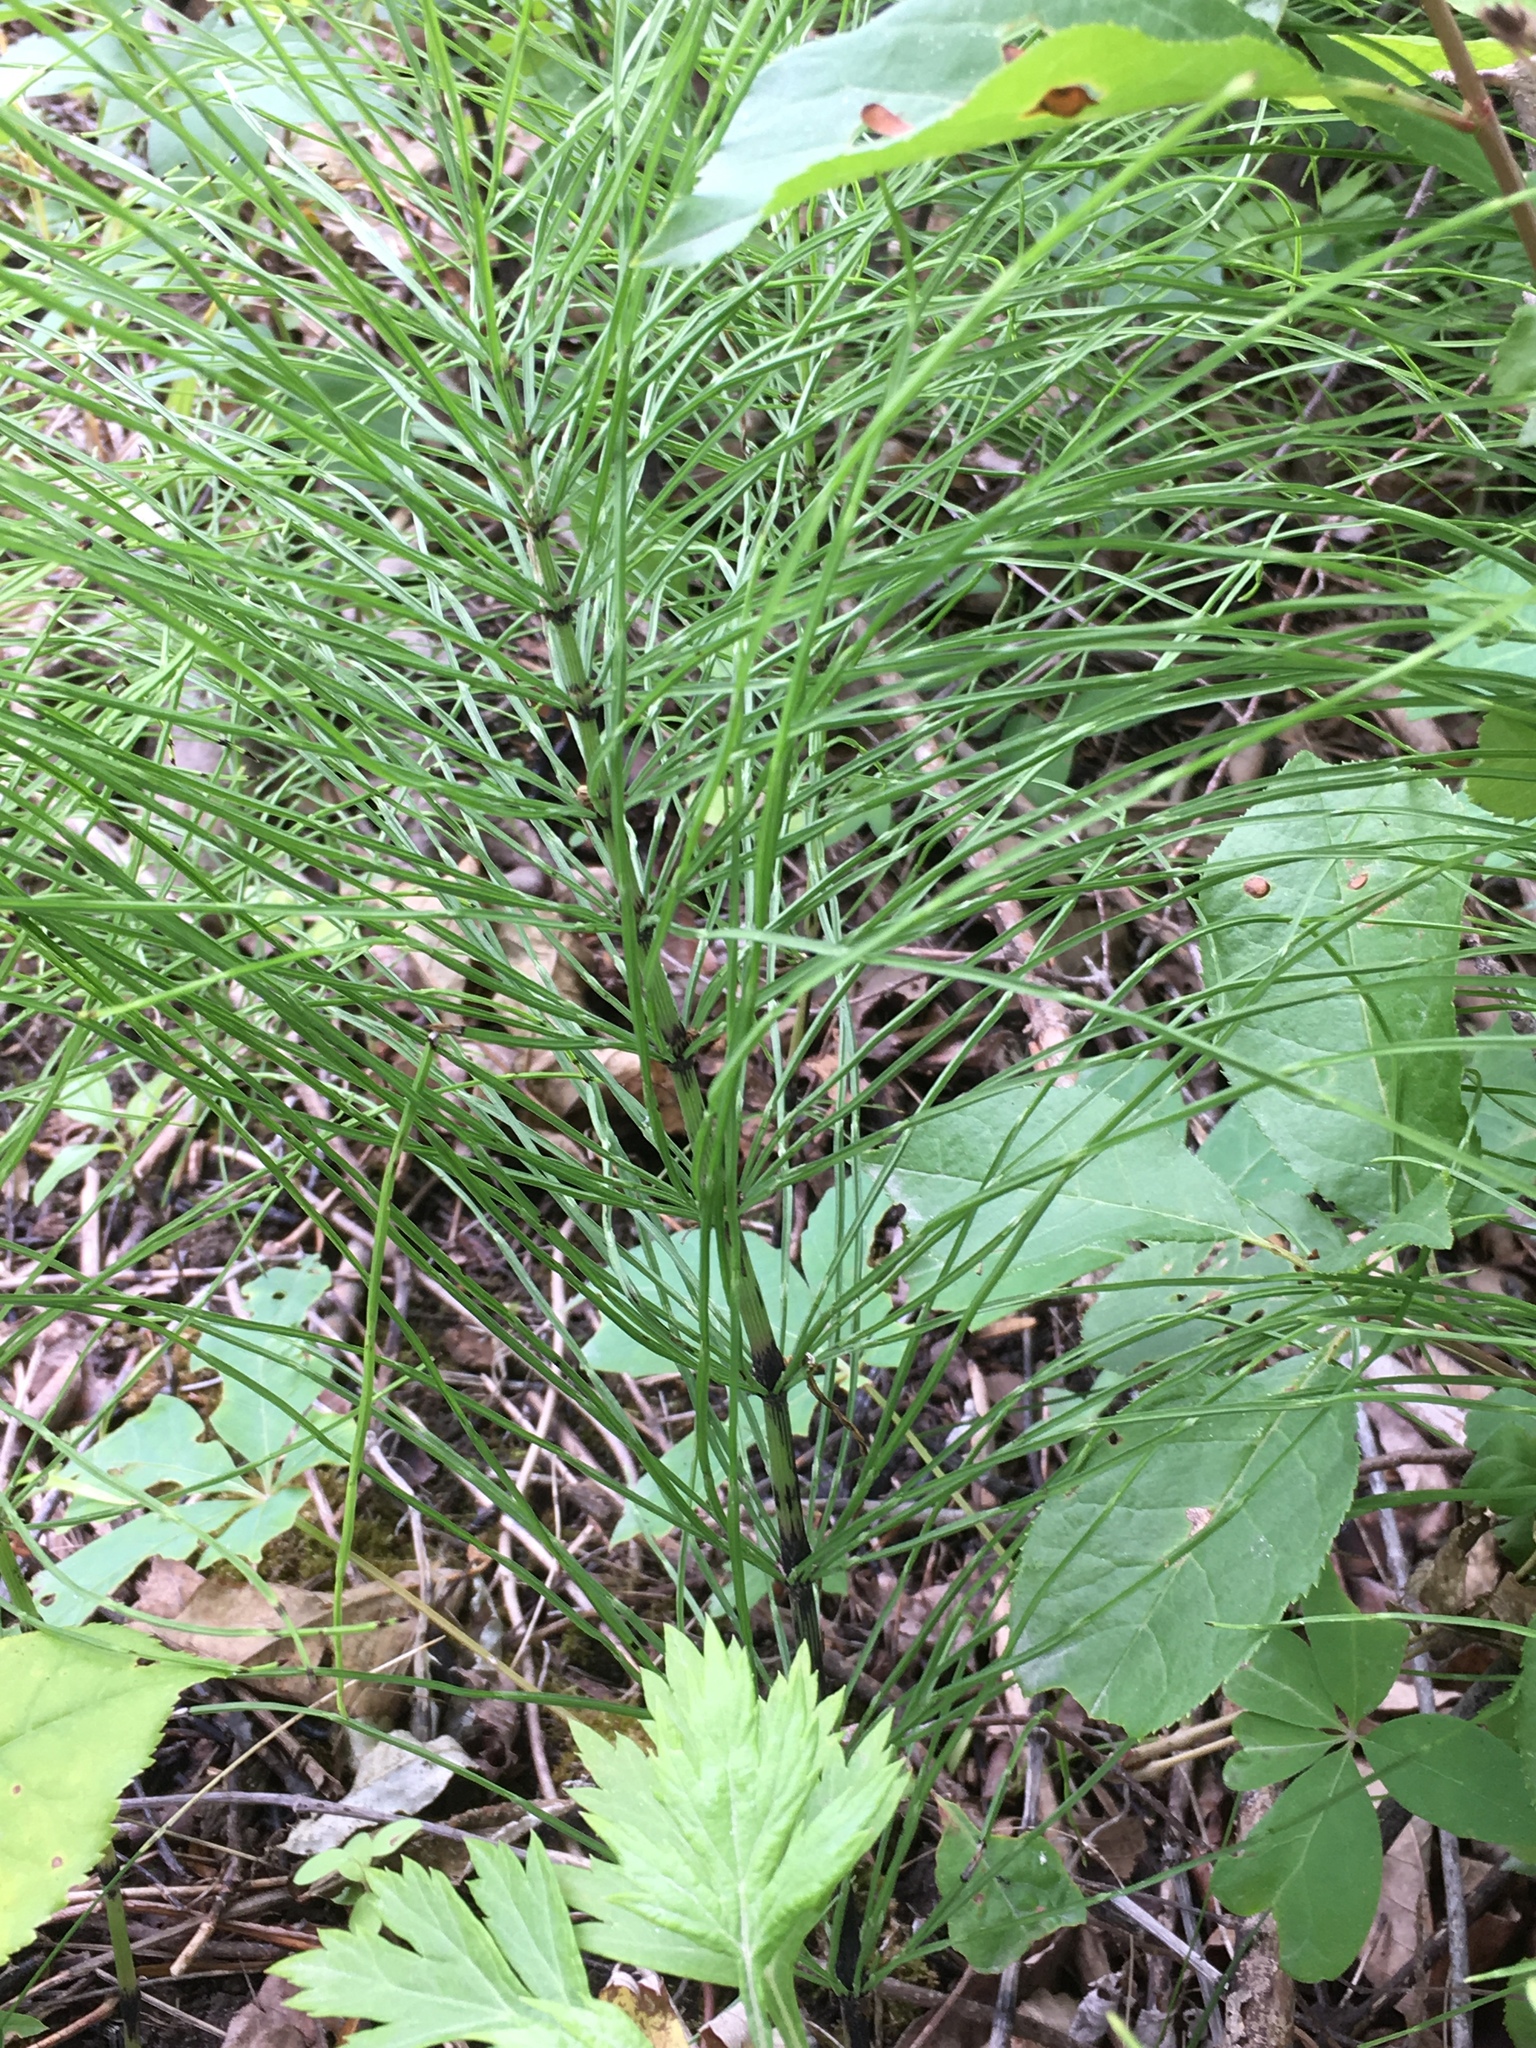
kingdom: Plantae
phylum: Tracheophyta
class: Polypodiopsida
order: Equisetales
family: Equisetaceae
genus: Equisetum
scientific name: Equisetum arvense
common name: Field horsetail
